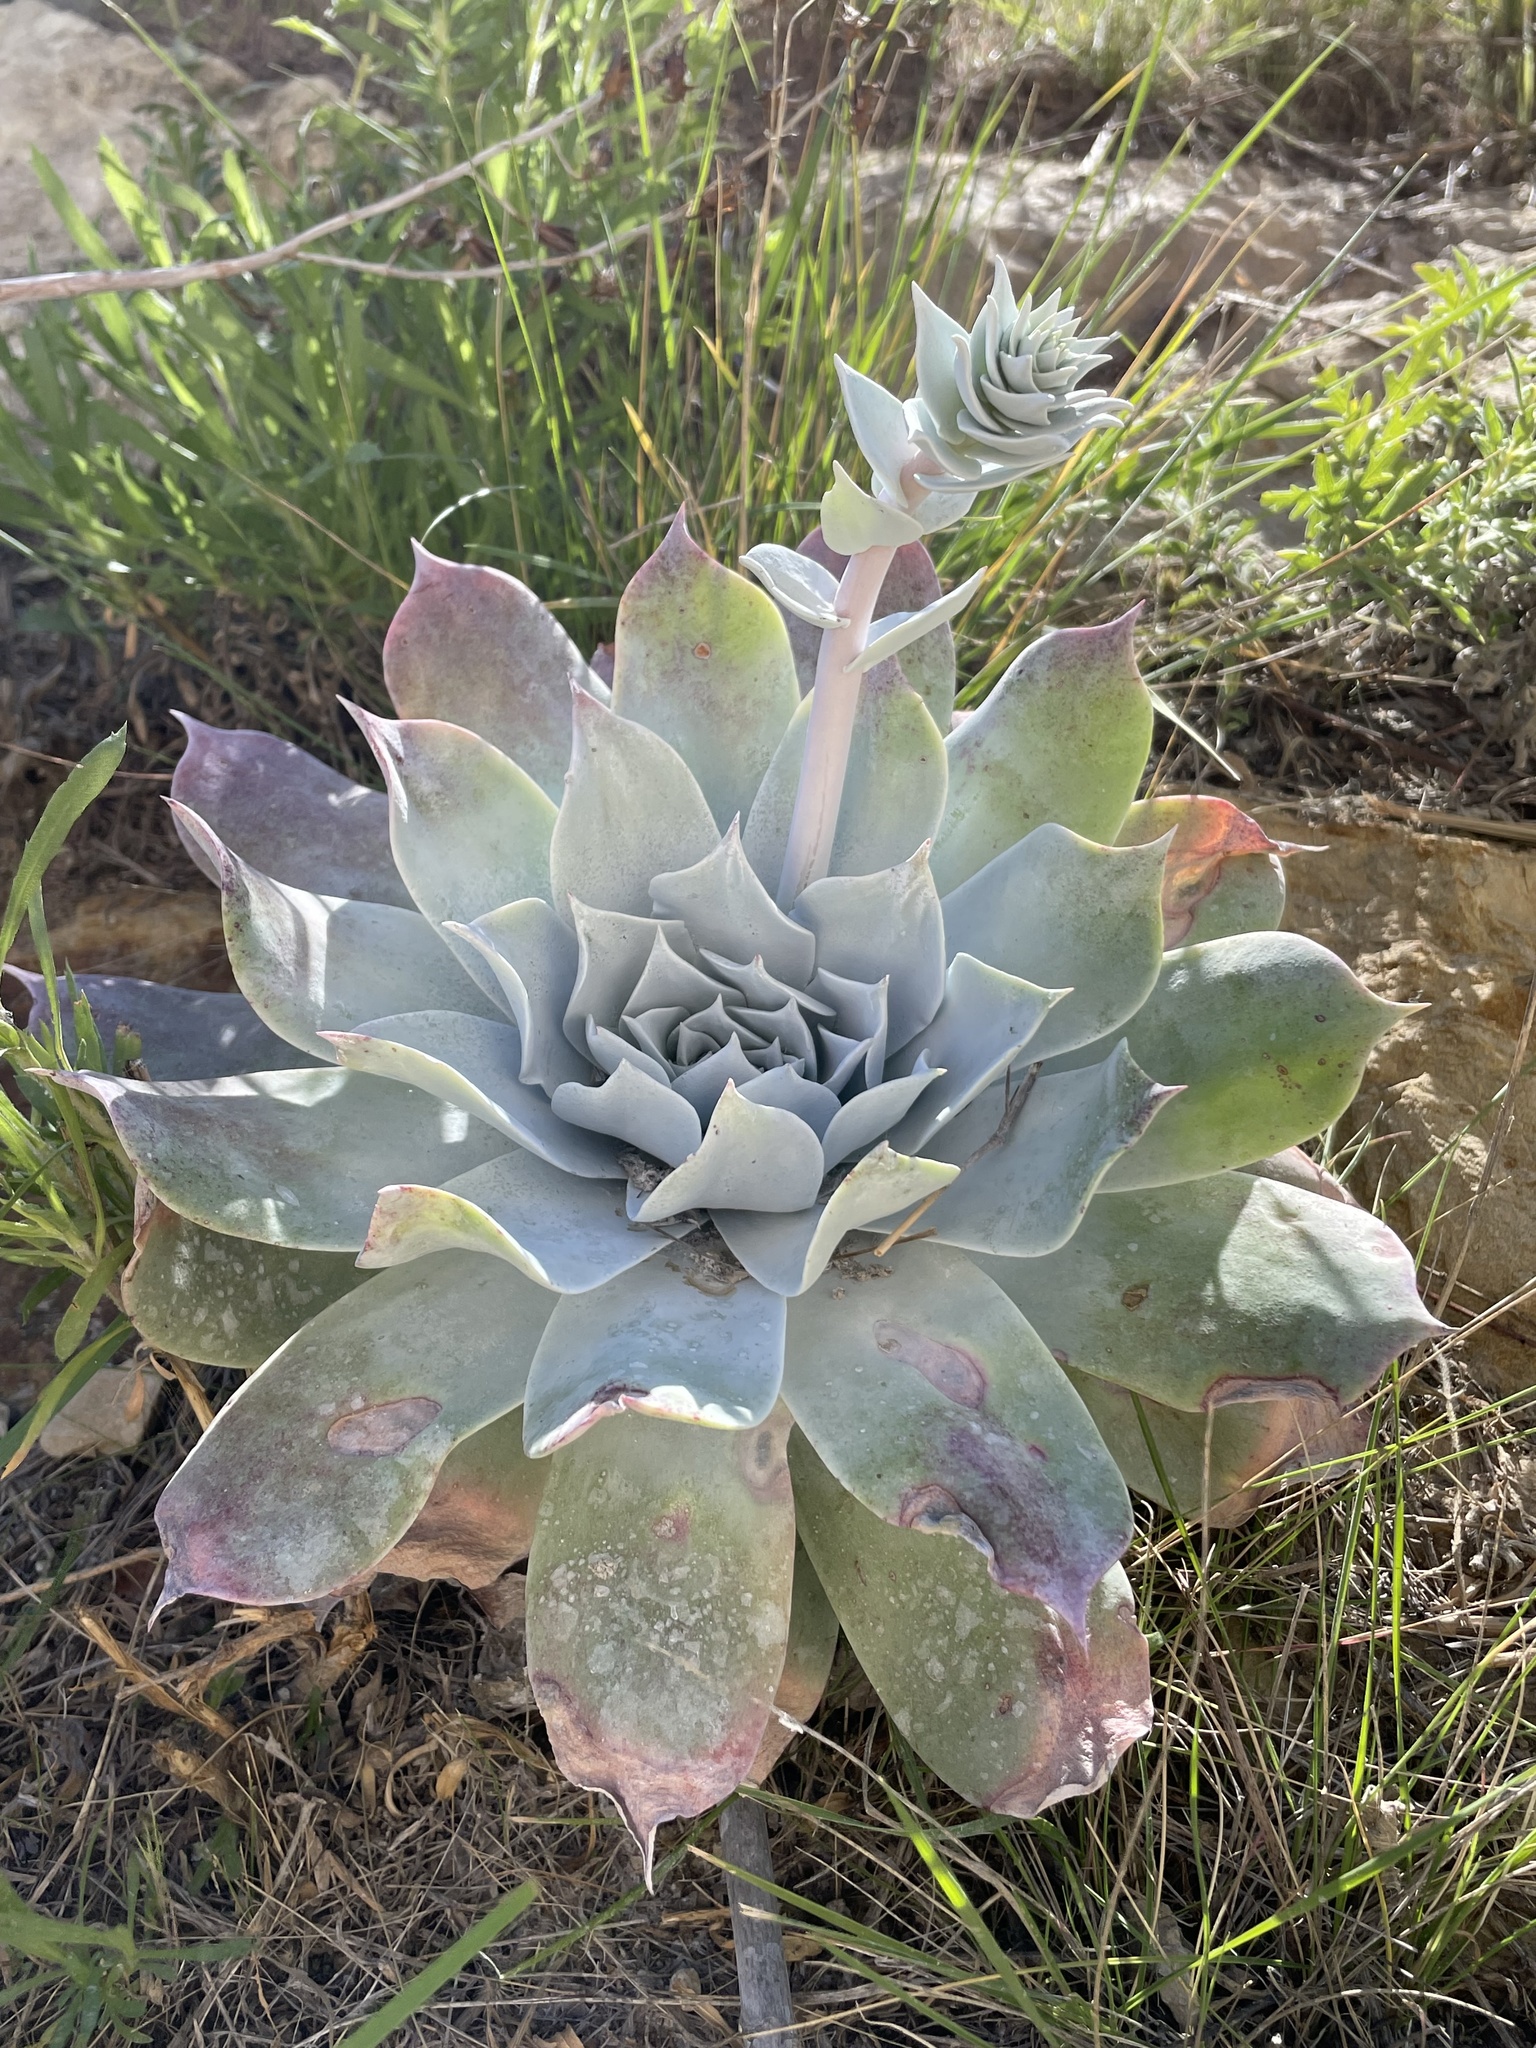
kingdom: Plantae
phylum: Tracheophyta
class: Magnoliopsida
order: Saxifragales
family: Crassulaceae
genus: Dudleya
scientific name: Dudleya pulverulenta
